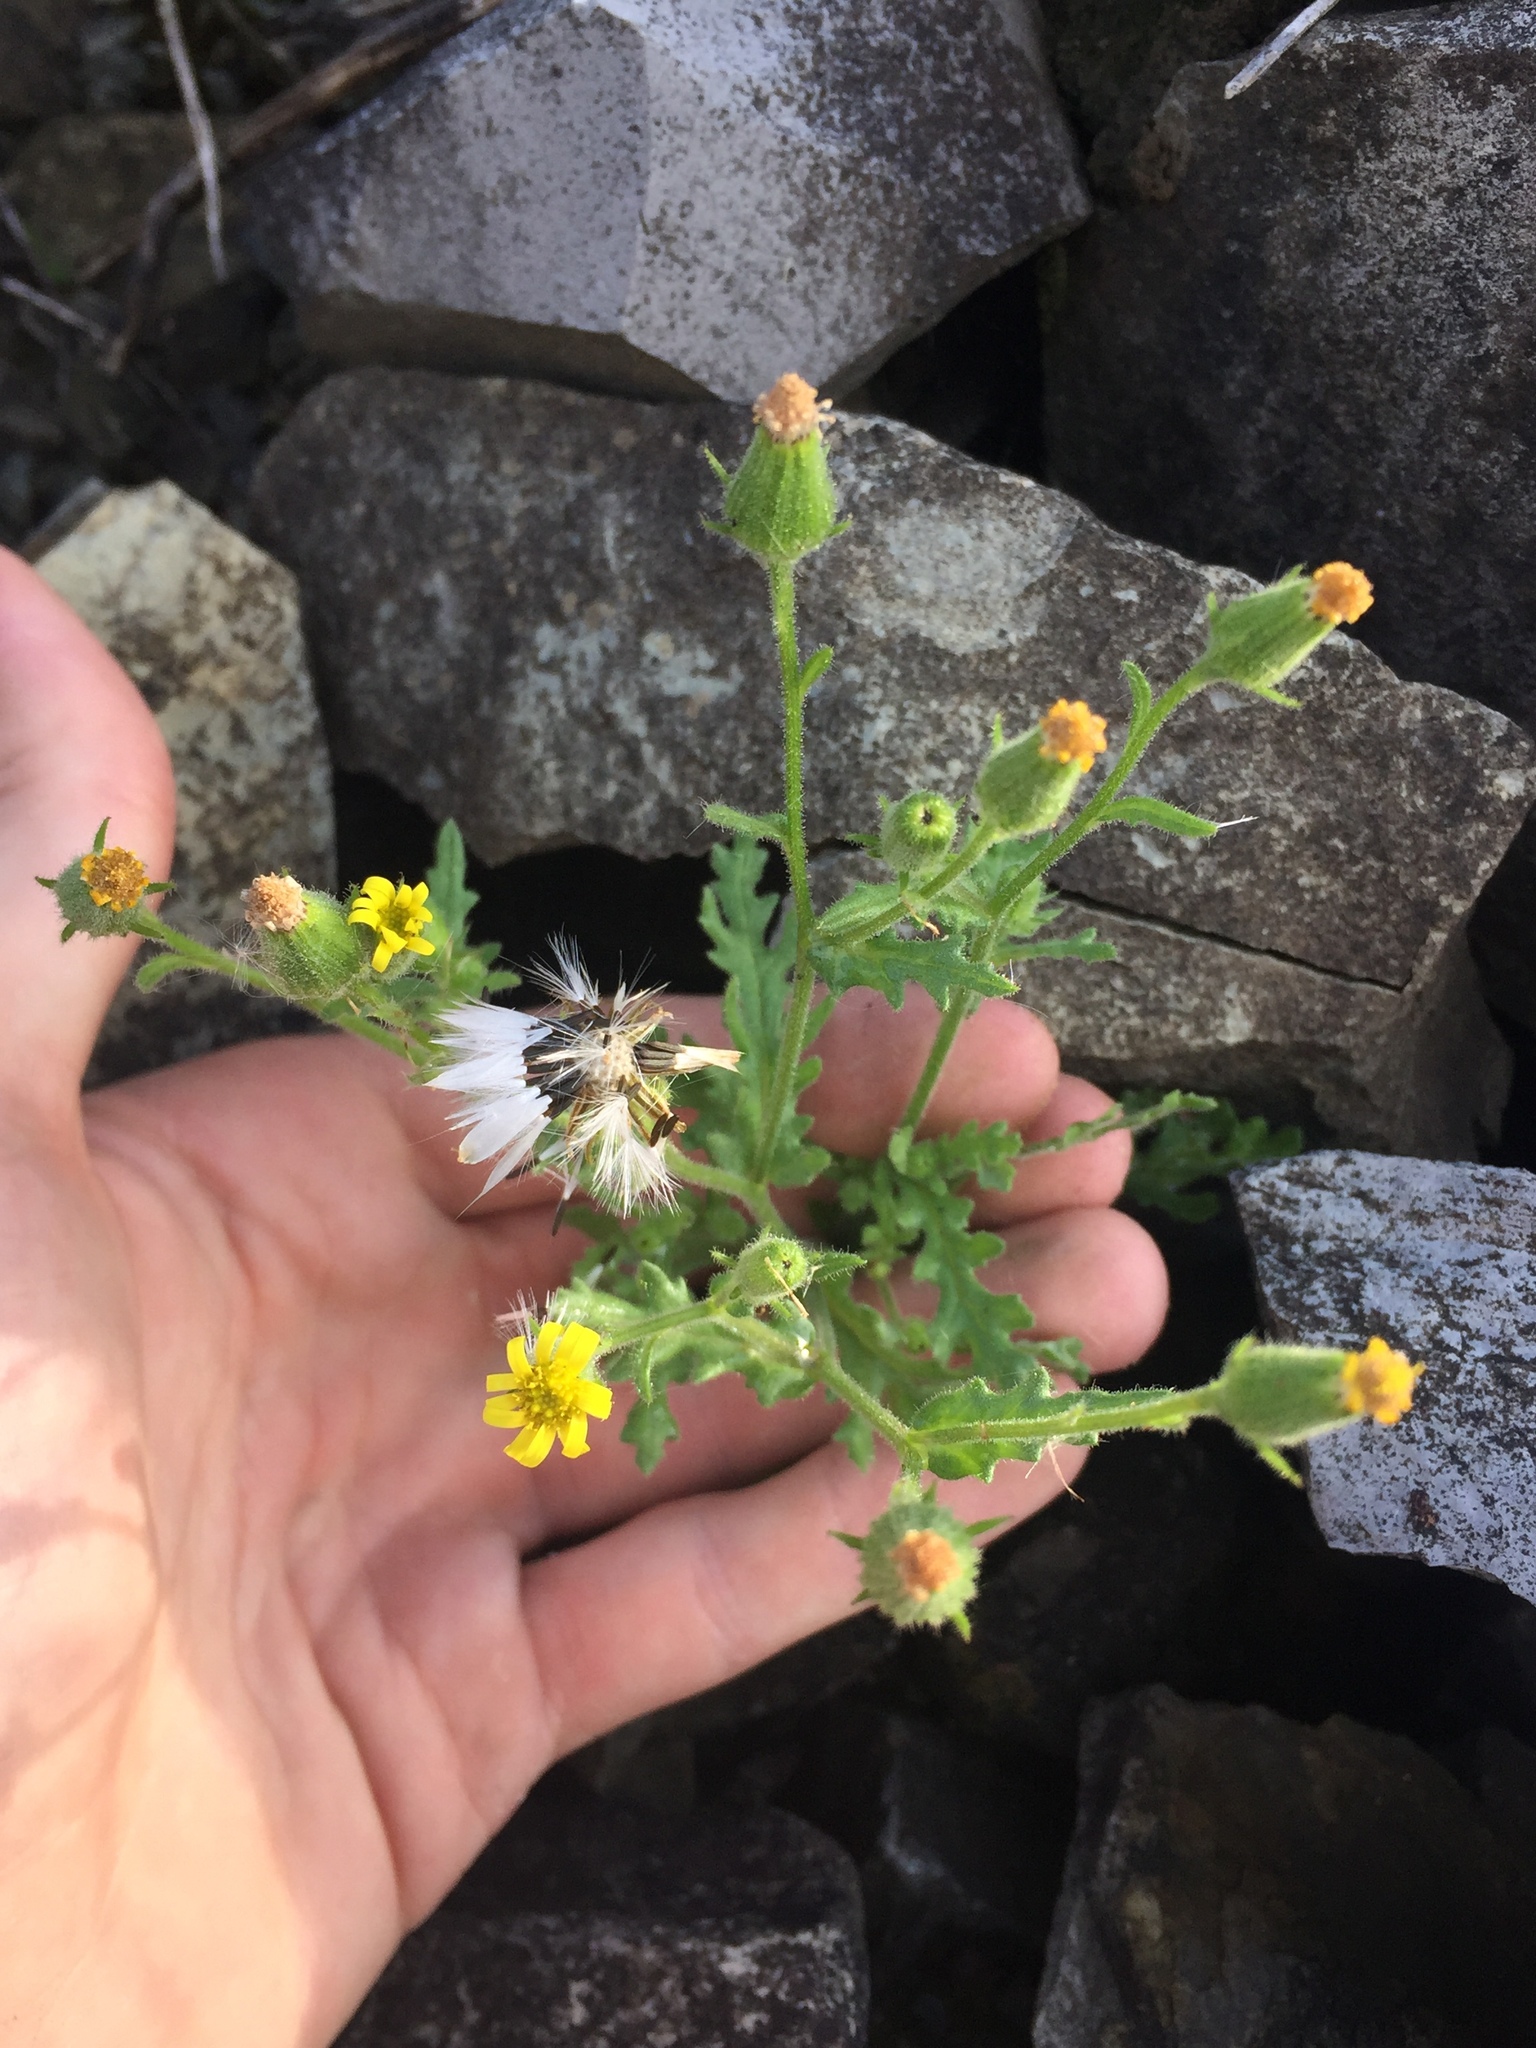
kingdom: Plantae
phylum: Tracheophyta
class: Magnoliopsida
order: Asterales
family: Asteraceae
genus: Senecio
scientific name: Senecio viscosus
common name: Sticky groundsel
